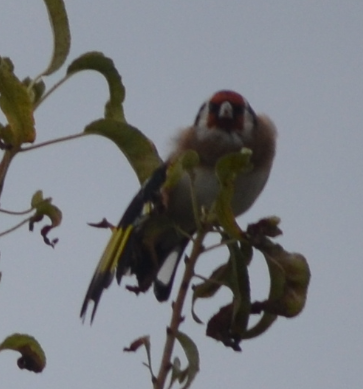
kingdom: Animalia
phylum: Chordata
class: Aves
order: Passeriformes
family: Fringillidae
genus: Carduelis
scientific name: Carduelis carduelis
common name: European goldfinch
